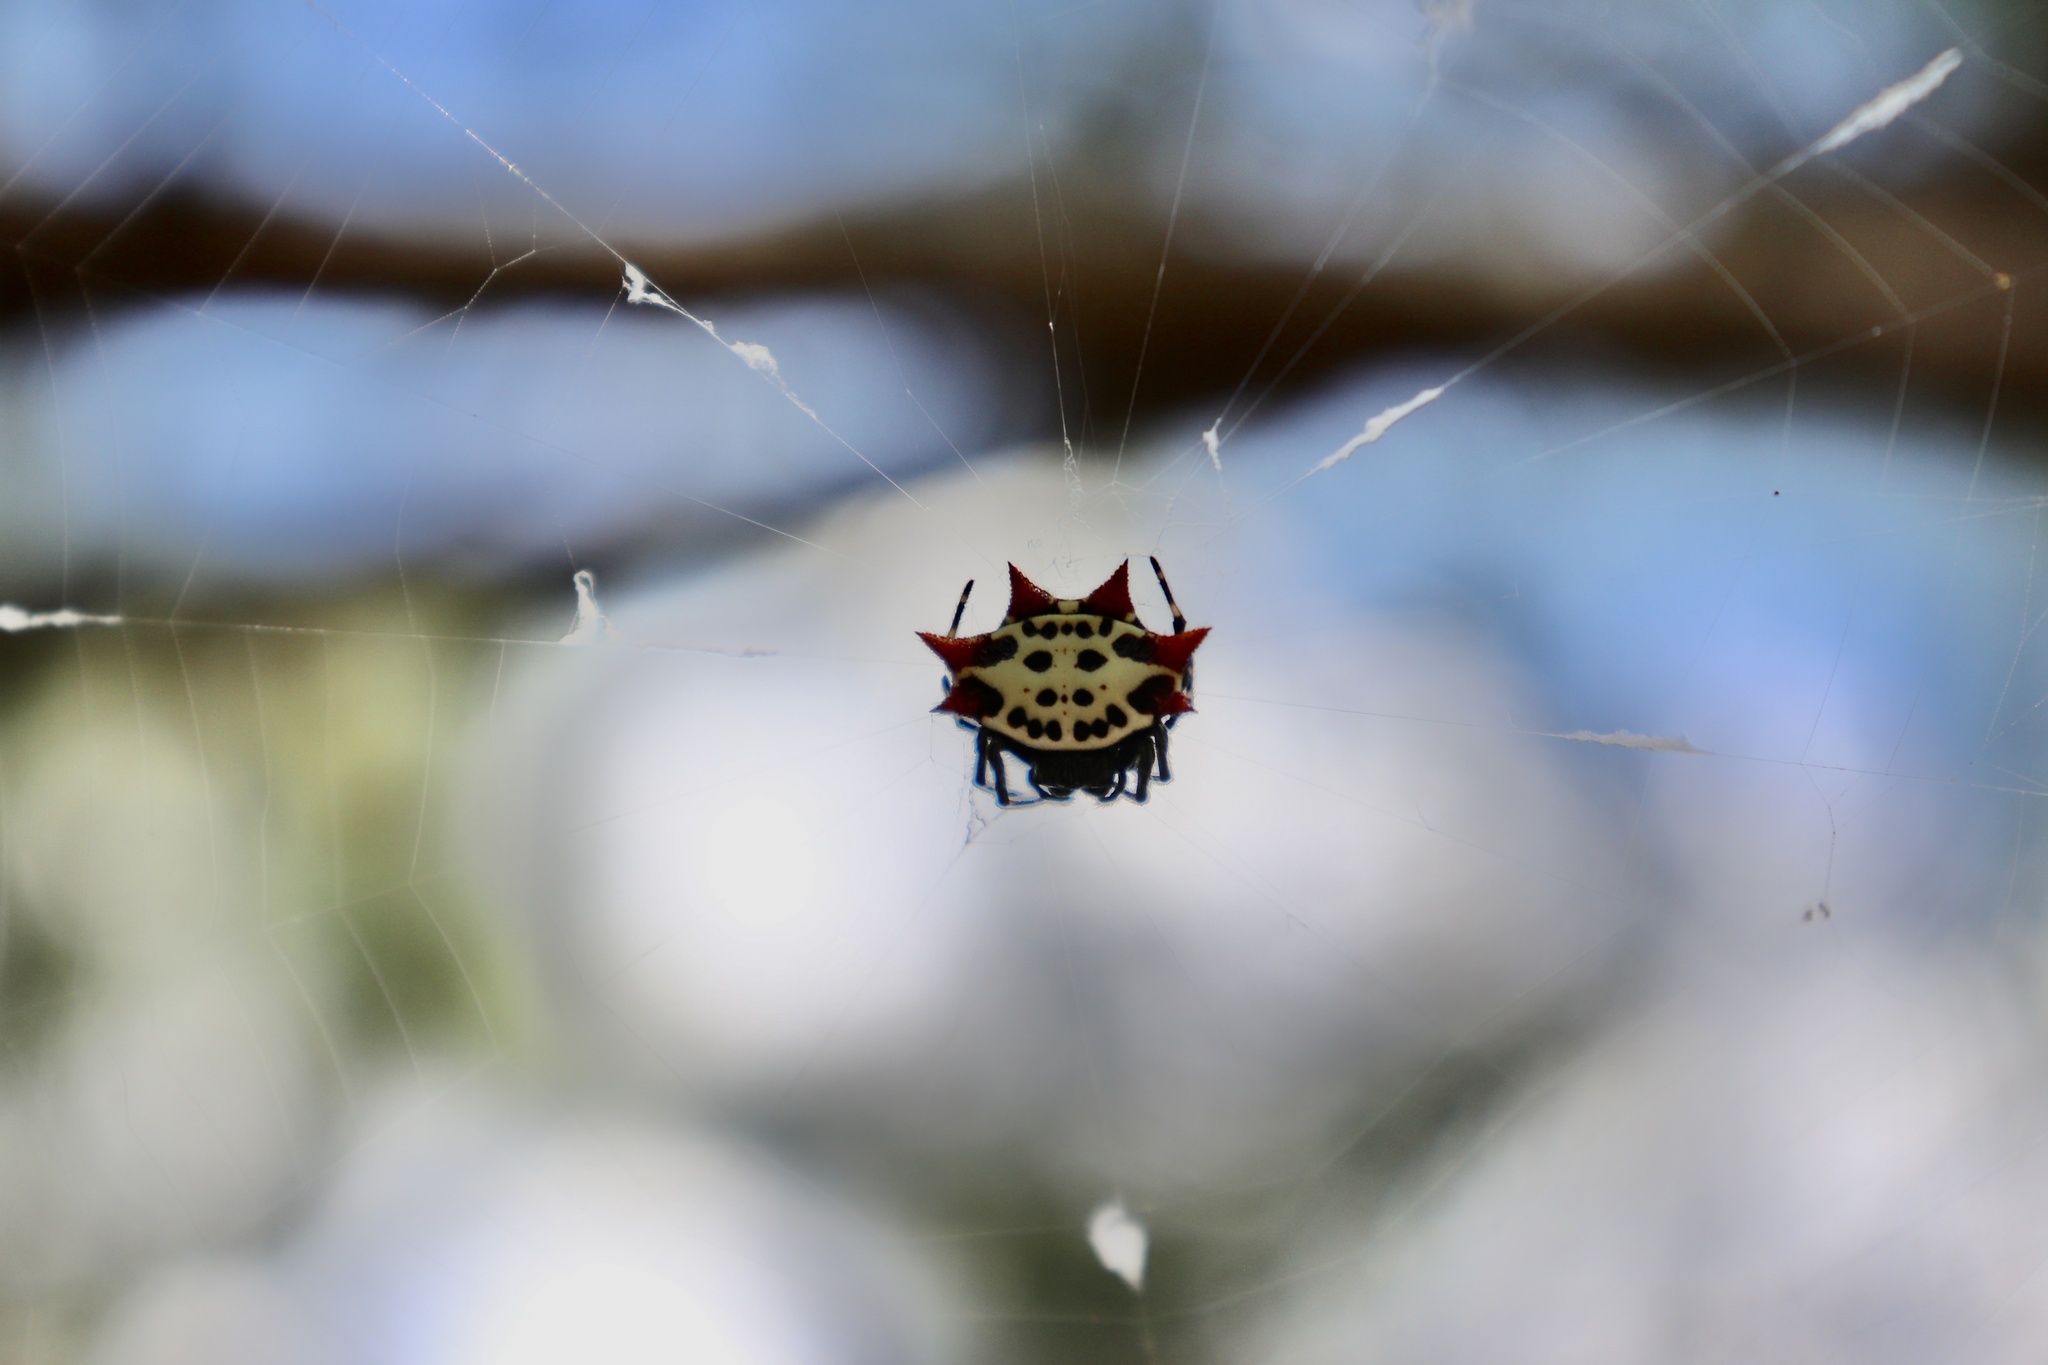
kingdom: Animalia
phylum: Arthropoda
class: Arachnida
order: Araneae
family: Araneidae
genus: Gasteracantha
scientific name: Gasteracantha cancriformis
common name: Orb weavers
